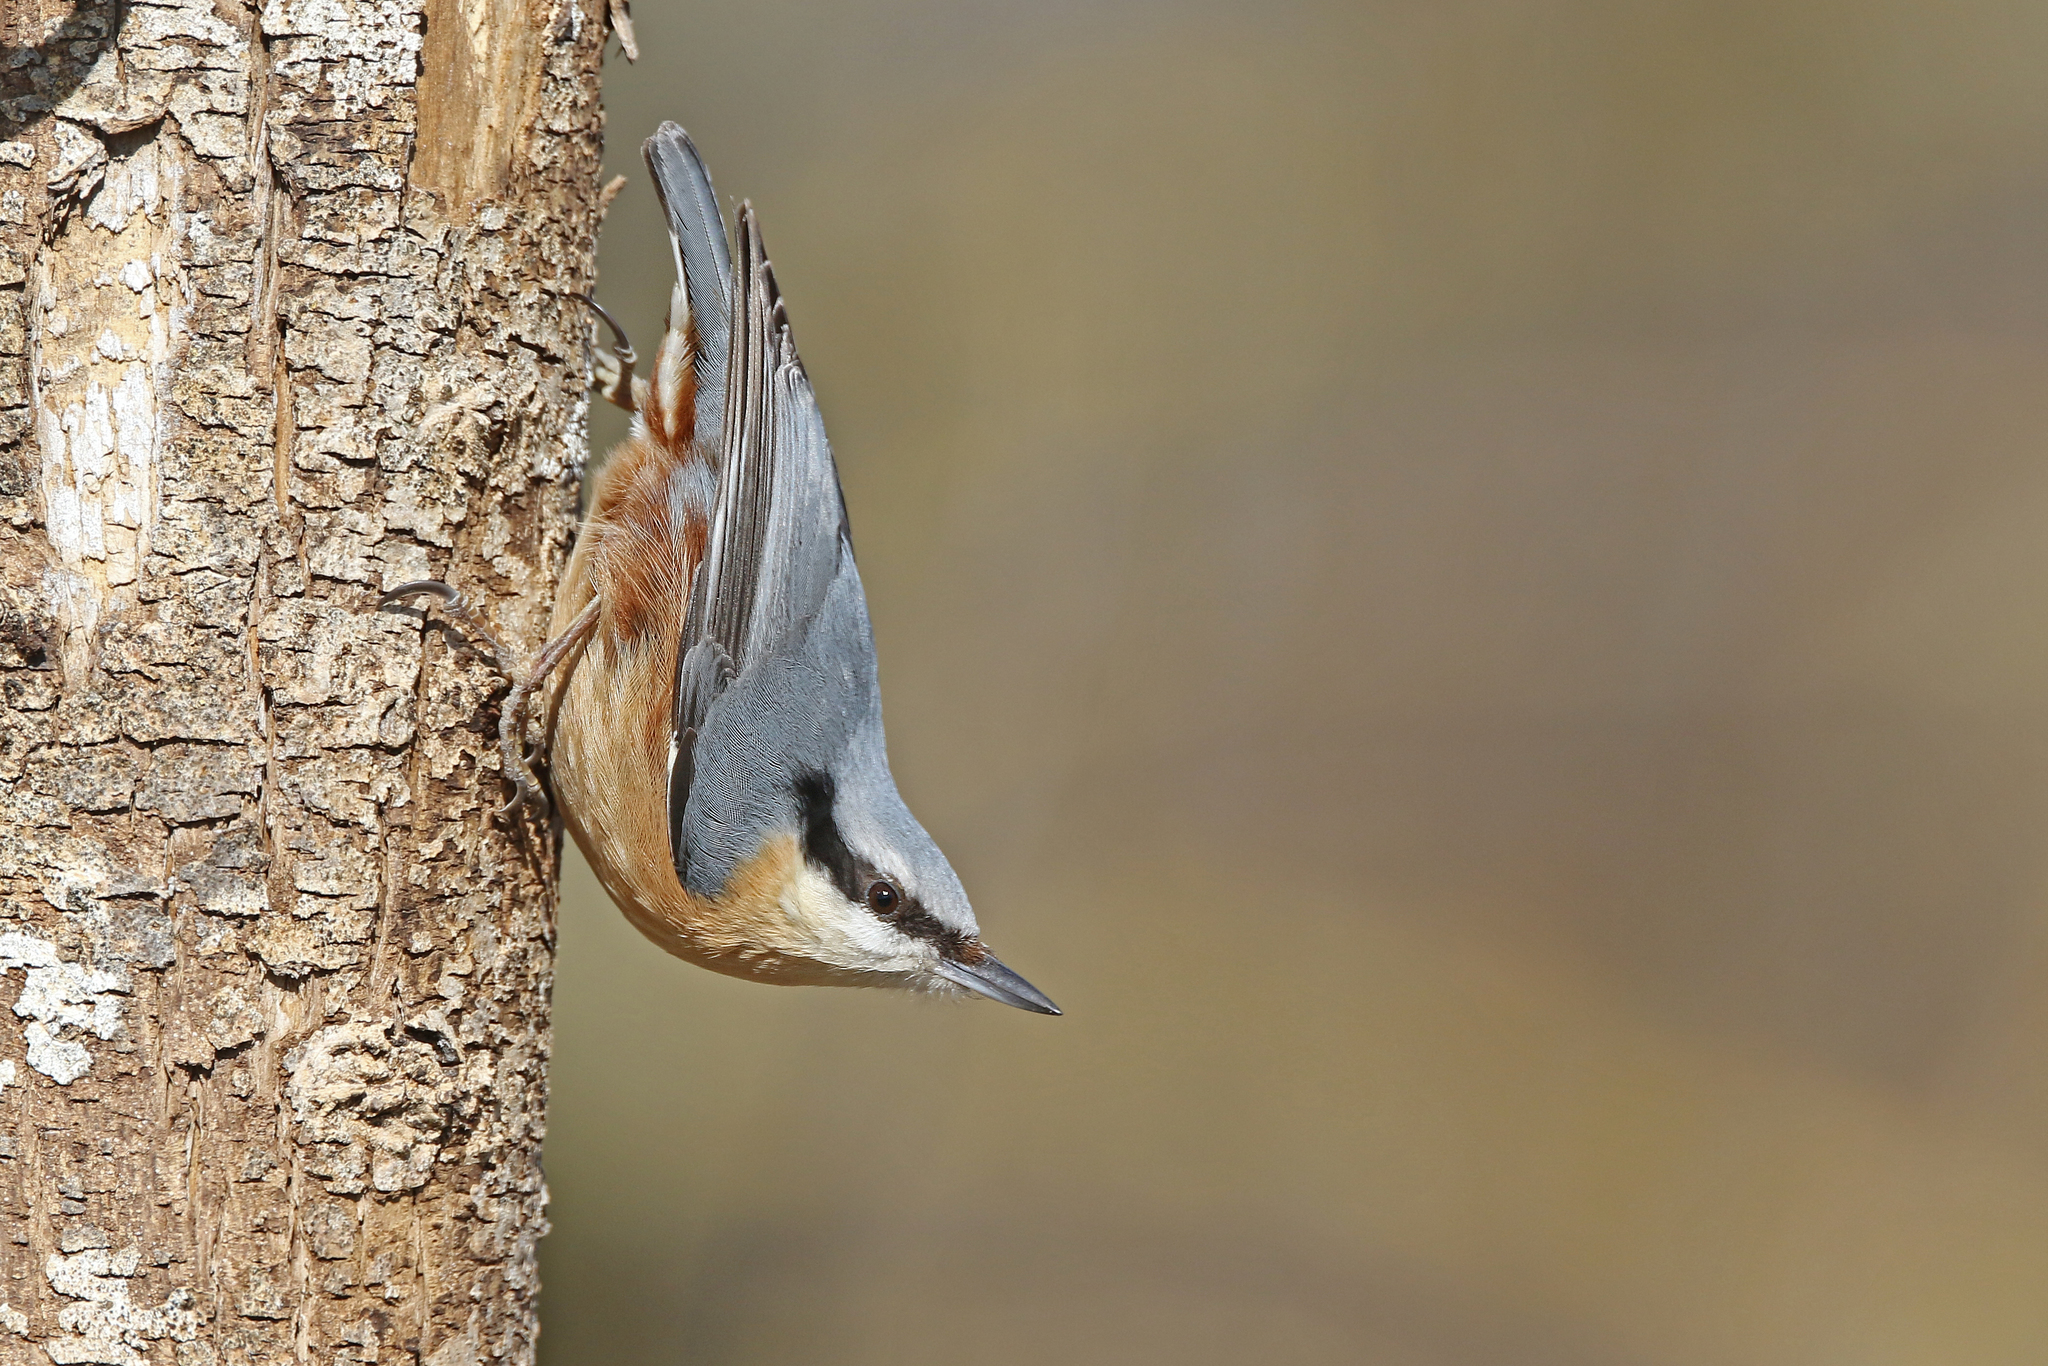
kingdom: Animalia
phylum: Chordata
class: Aves
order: Passeriformes
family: Sittidae
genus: Sitta
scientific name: Sitta europaea
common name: Eurasian nuthatch
